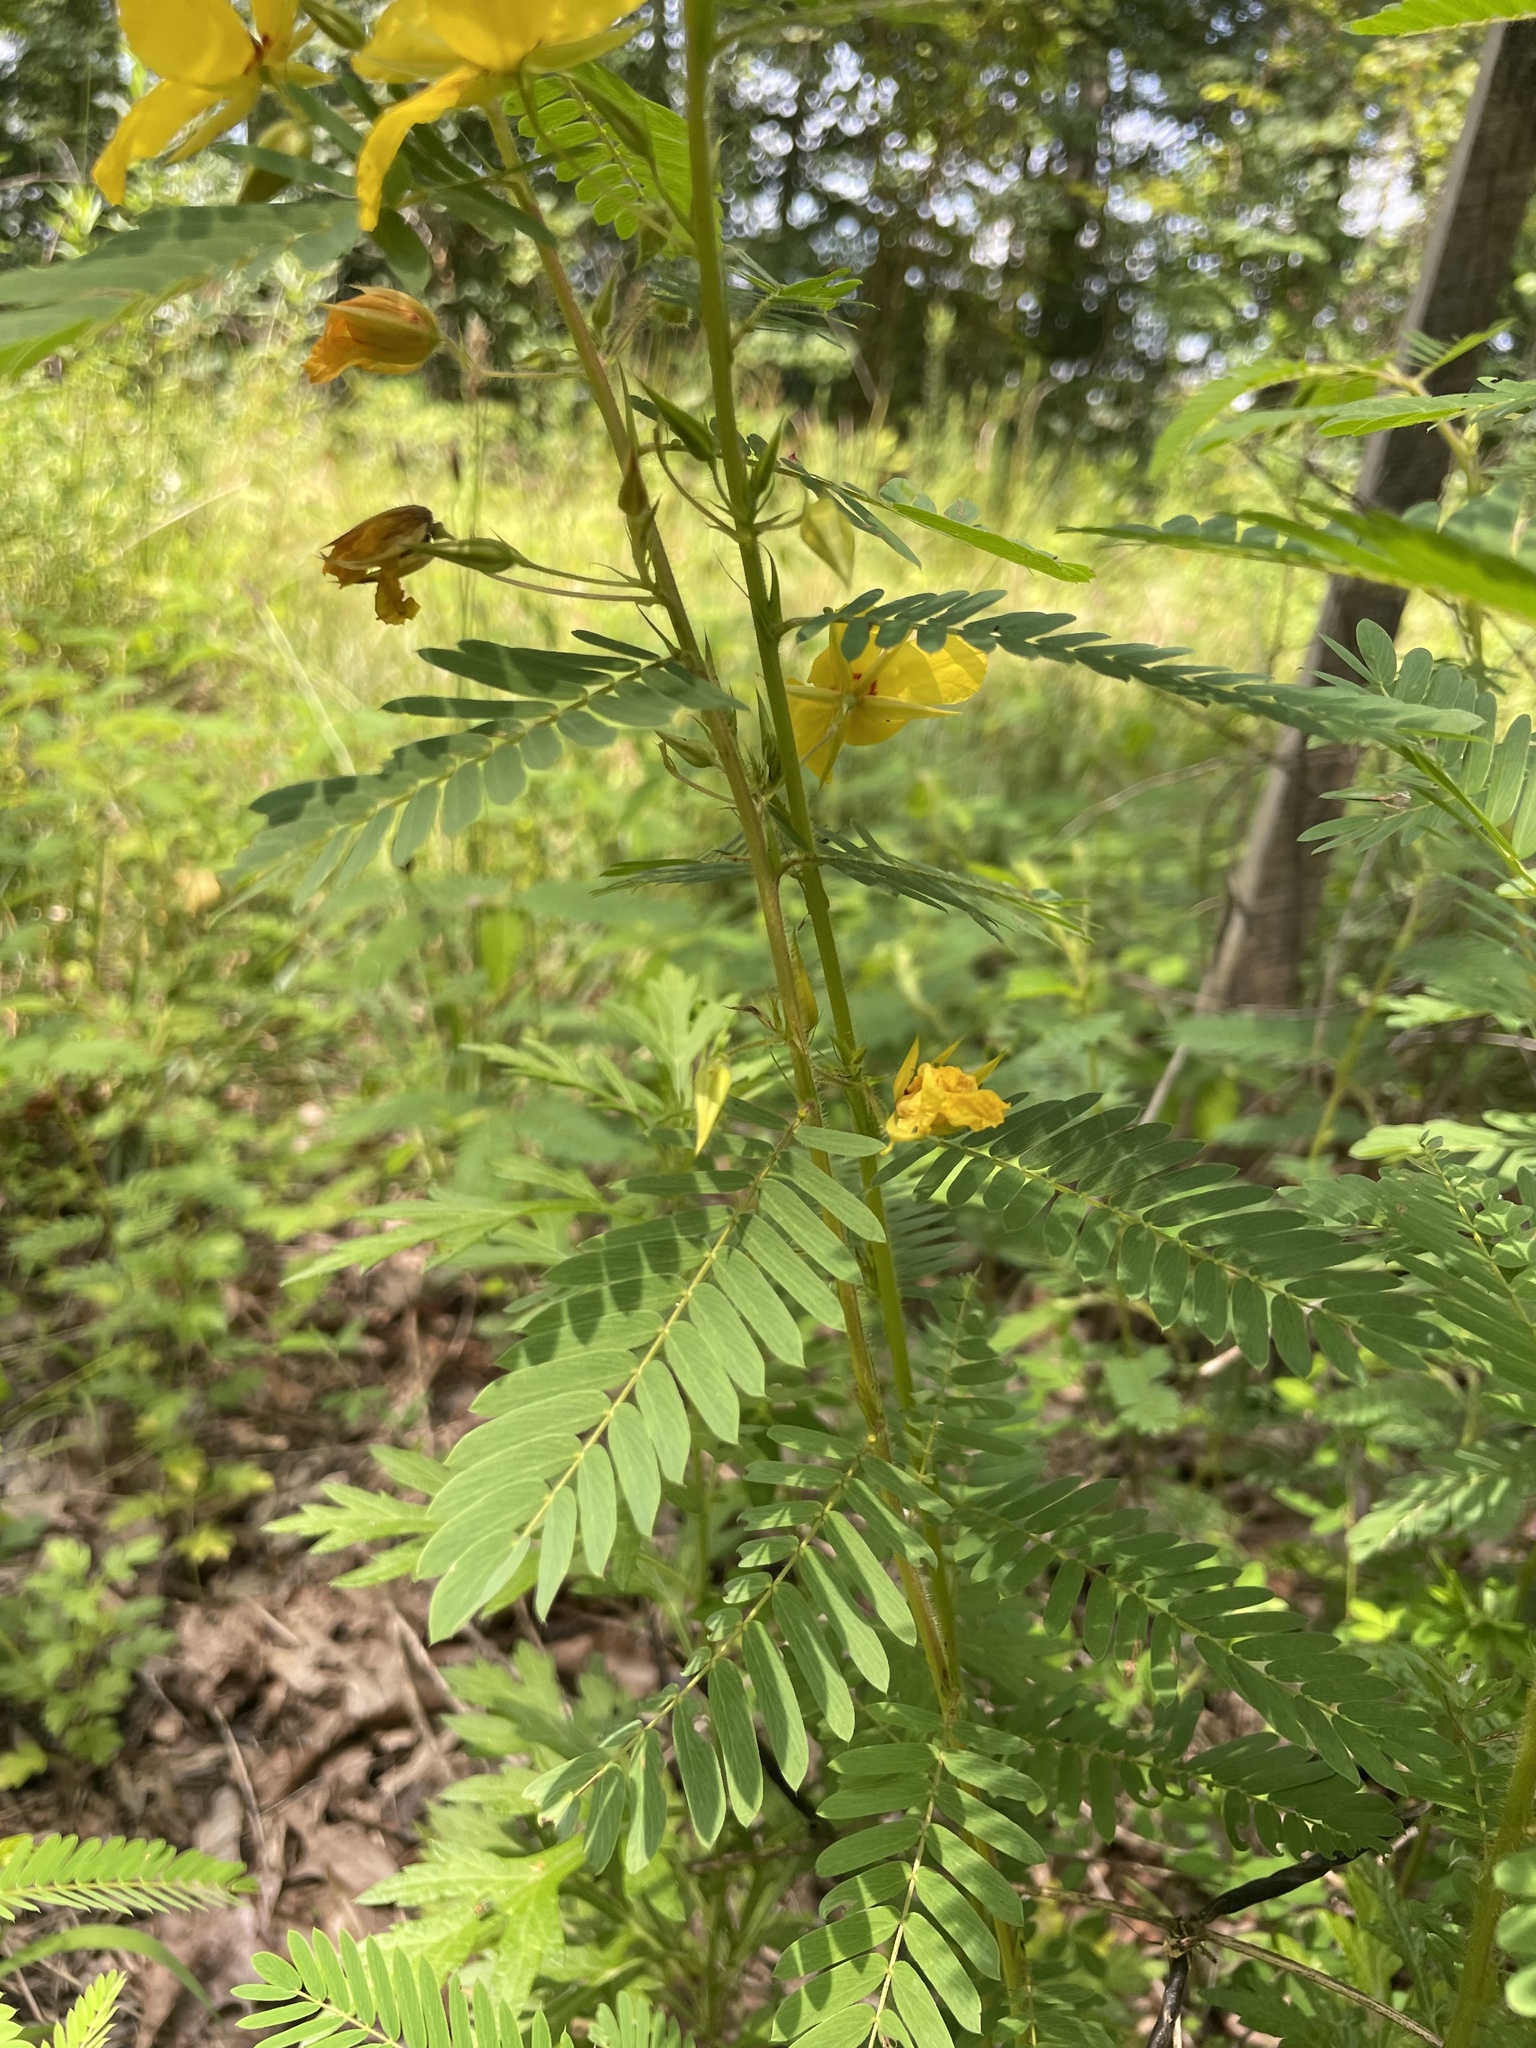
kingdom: Plantae
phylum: Tracheophyta
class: Magnoliopsida
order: Fabales
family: Fabaceae
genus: Chamaecrista
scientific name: Chamaecrista fasciculata
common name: Golden cassia
